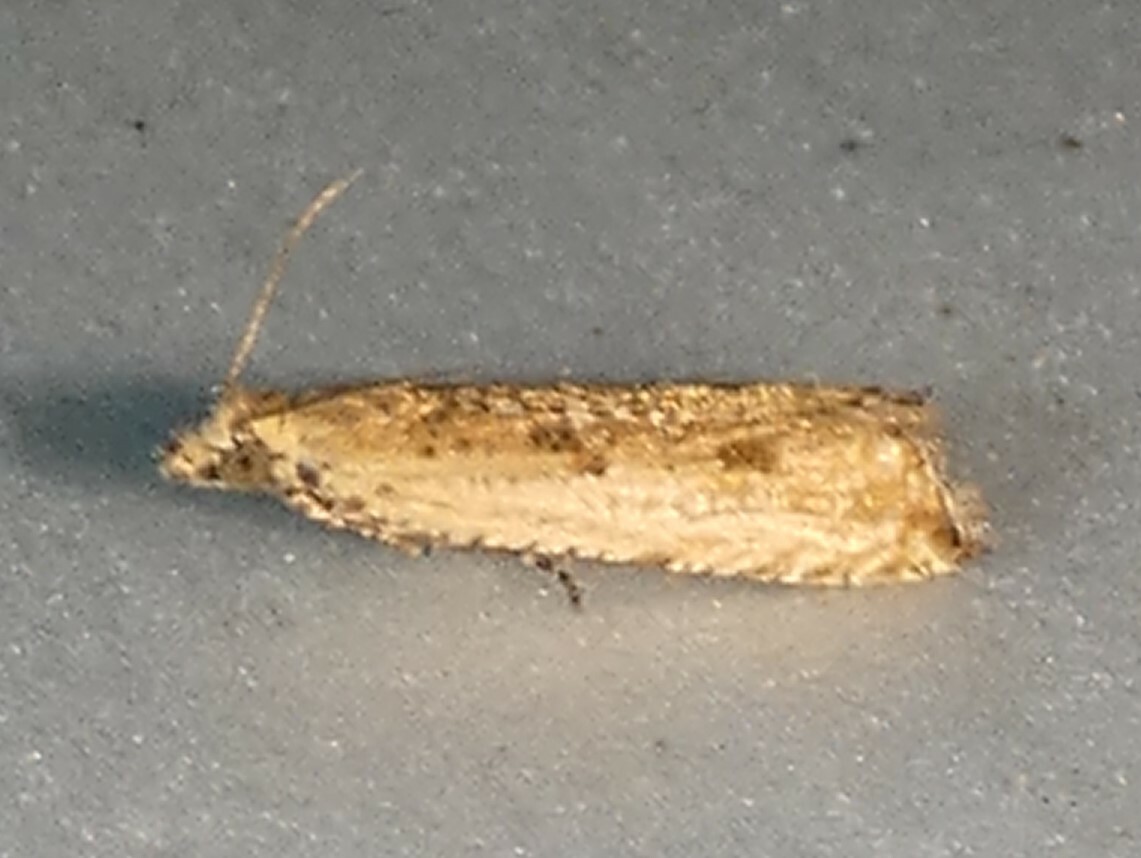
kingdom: Animalia
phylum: Arthropoda
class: Insecta
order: Lepidoptera
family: Tortricidae
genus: Bactra
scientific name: Bactra verutana
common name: Javelin moth
